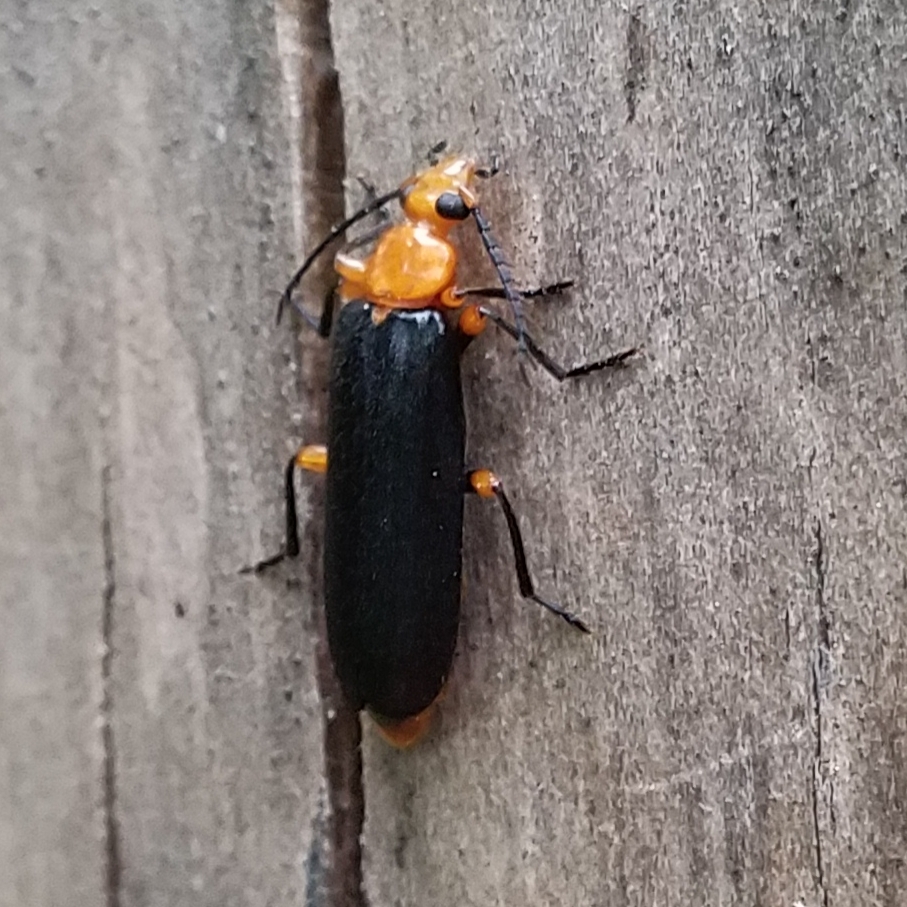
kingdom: Animalia
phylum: Arthropoda
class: Insecta
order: Coleoptera
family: Pyrochroidae
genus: Neopyrochroa
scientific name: Neopyrochroa femoralis
